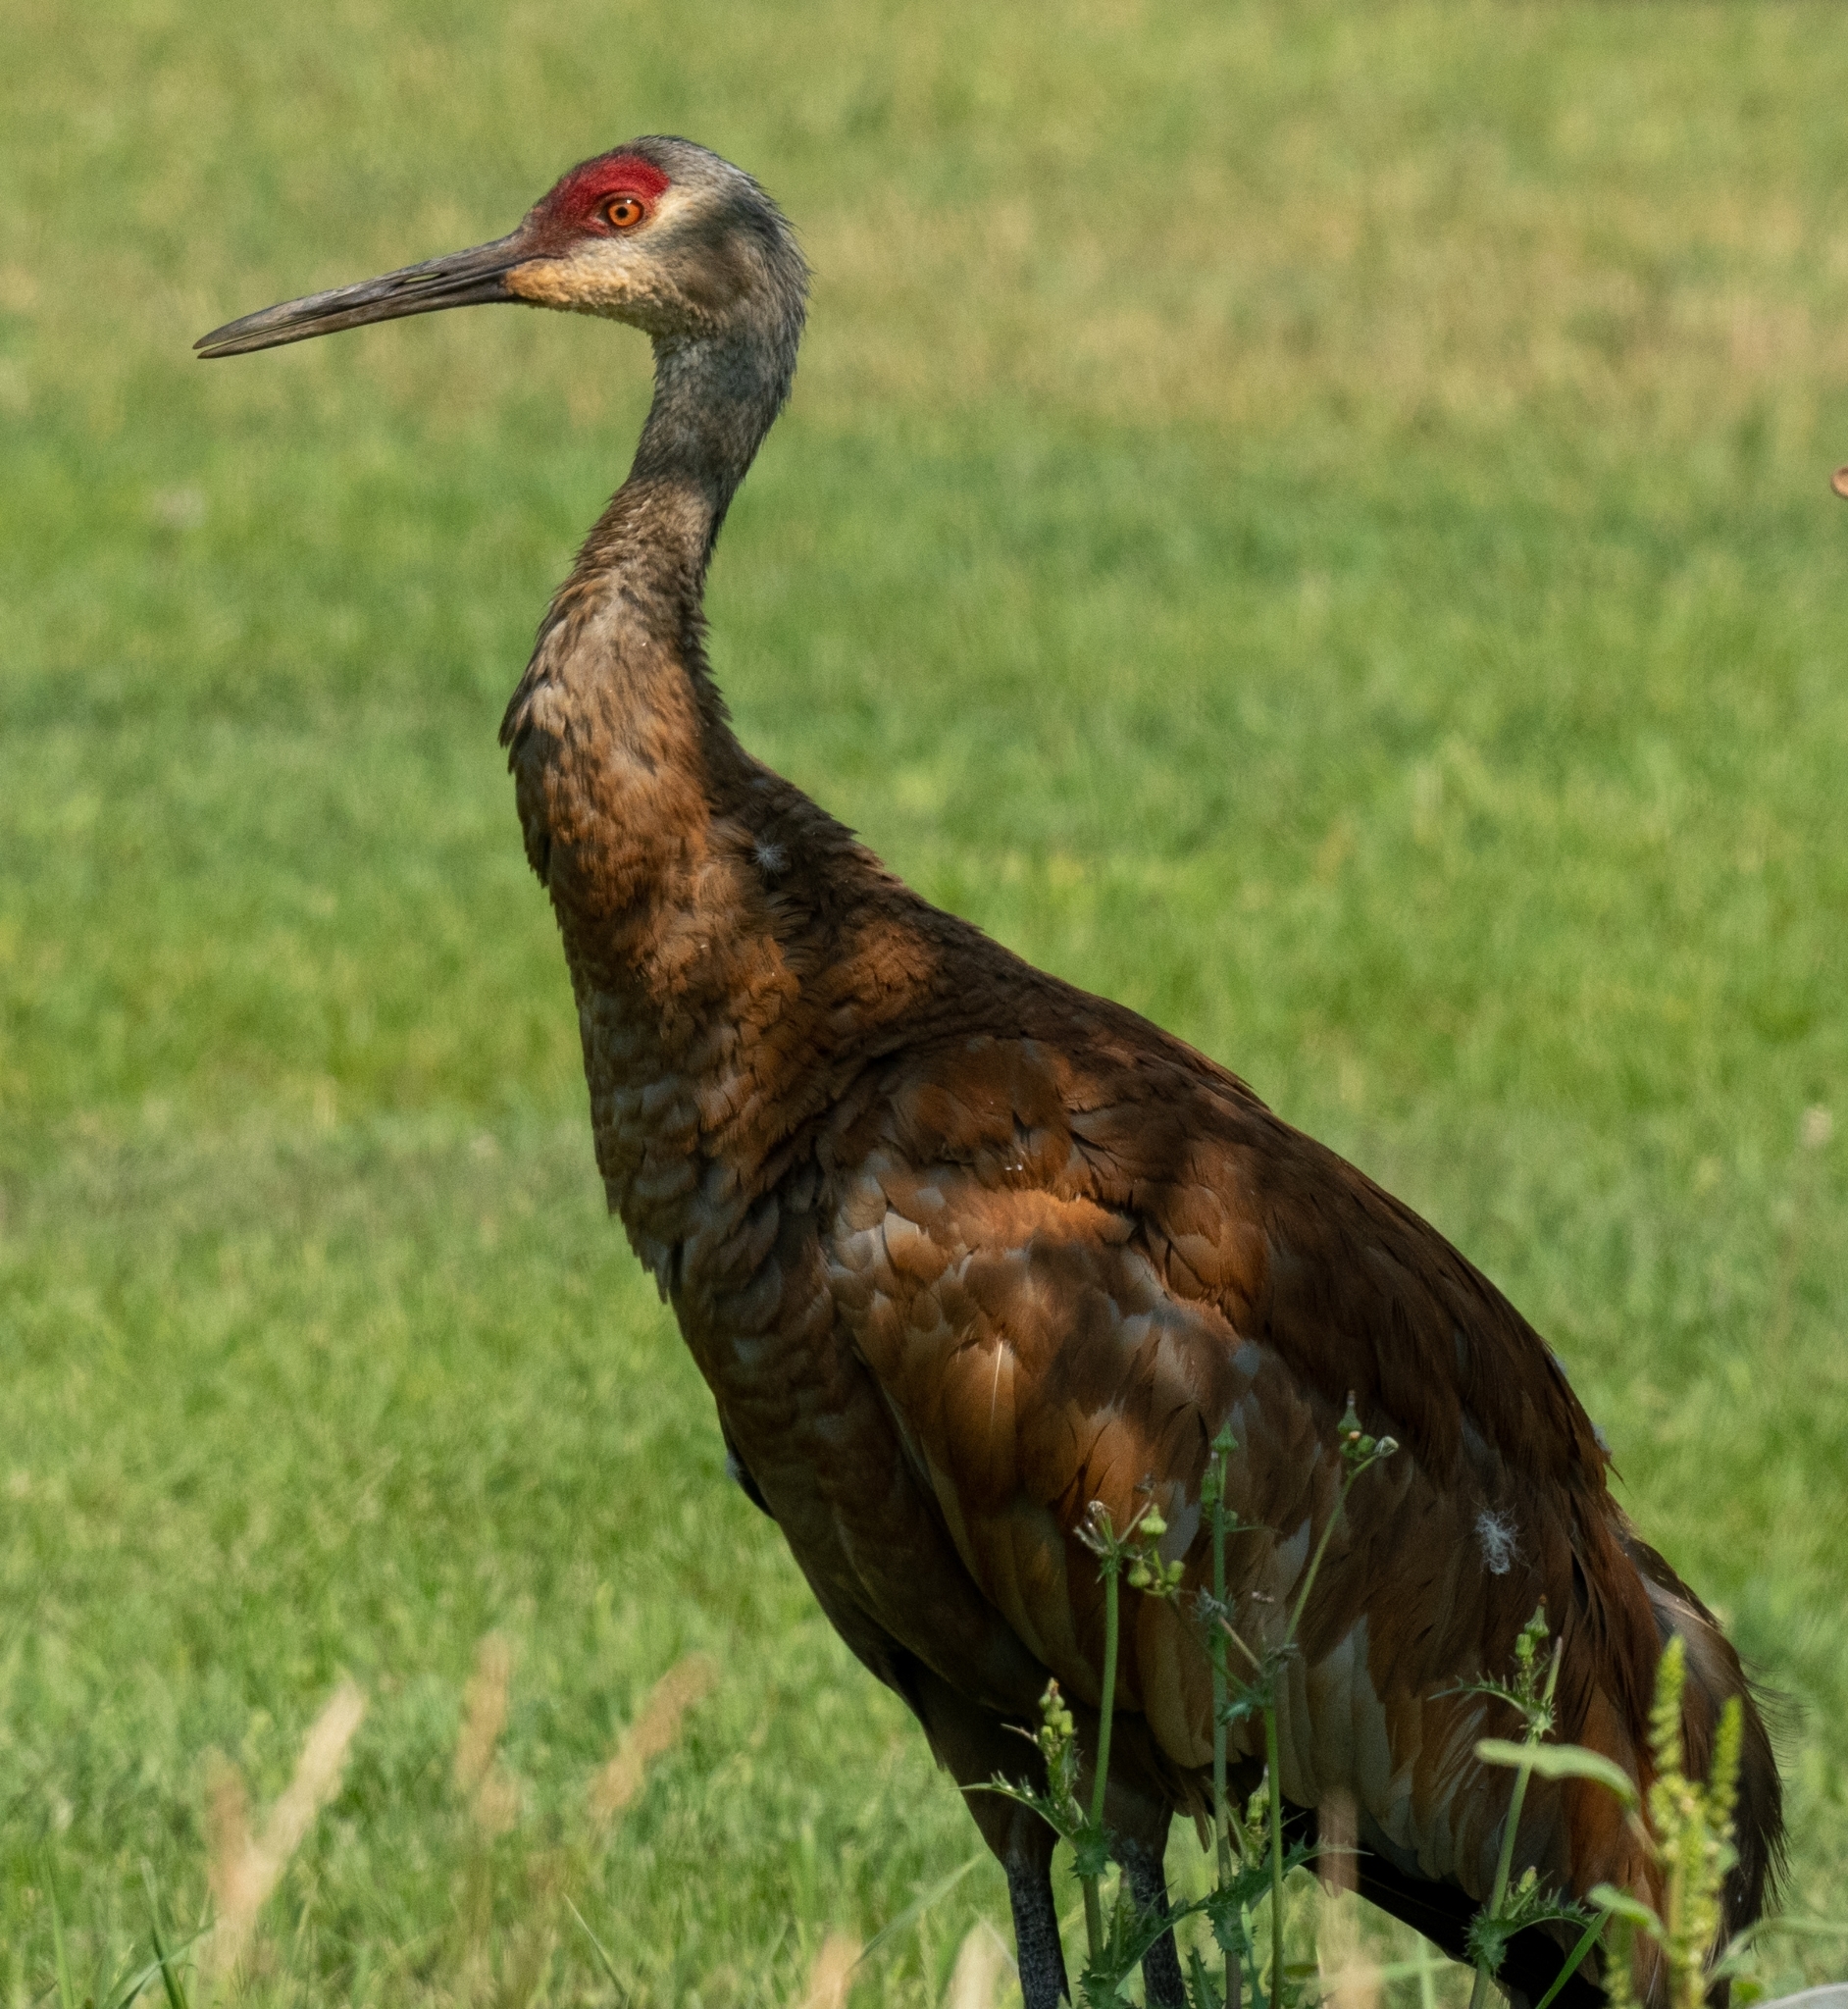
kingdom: Animalia
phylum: Chordata
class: Aves
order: Gruiformes
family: Gruidae
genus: Grus
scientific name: Grus canadensis
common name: Sandhill crane
